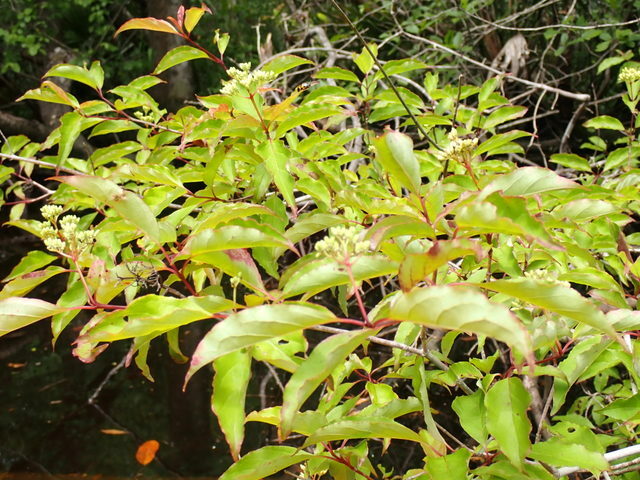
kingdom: Plantae
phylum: Tracheophyta
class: Magnoliopsida
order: Cornales
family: Cornaceae
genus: Cornus
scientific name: Cornus foemina
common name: Swamp dogwood
